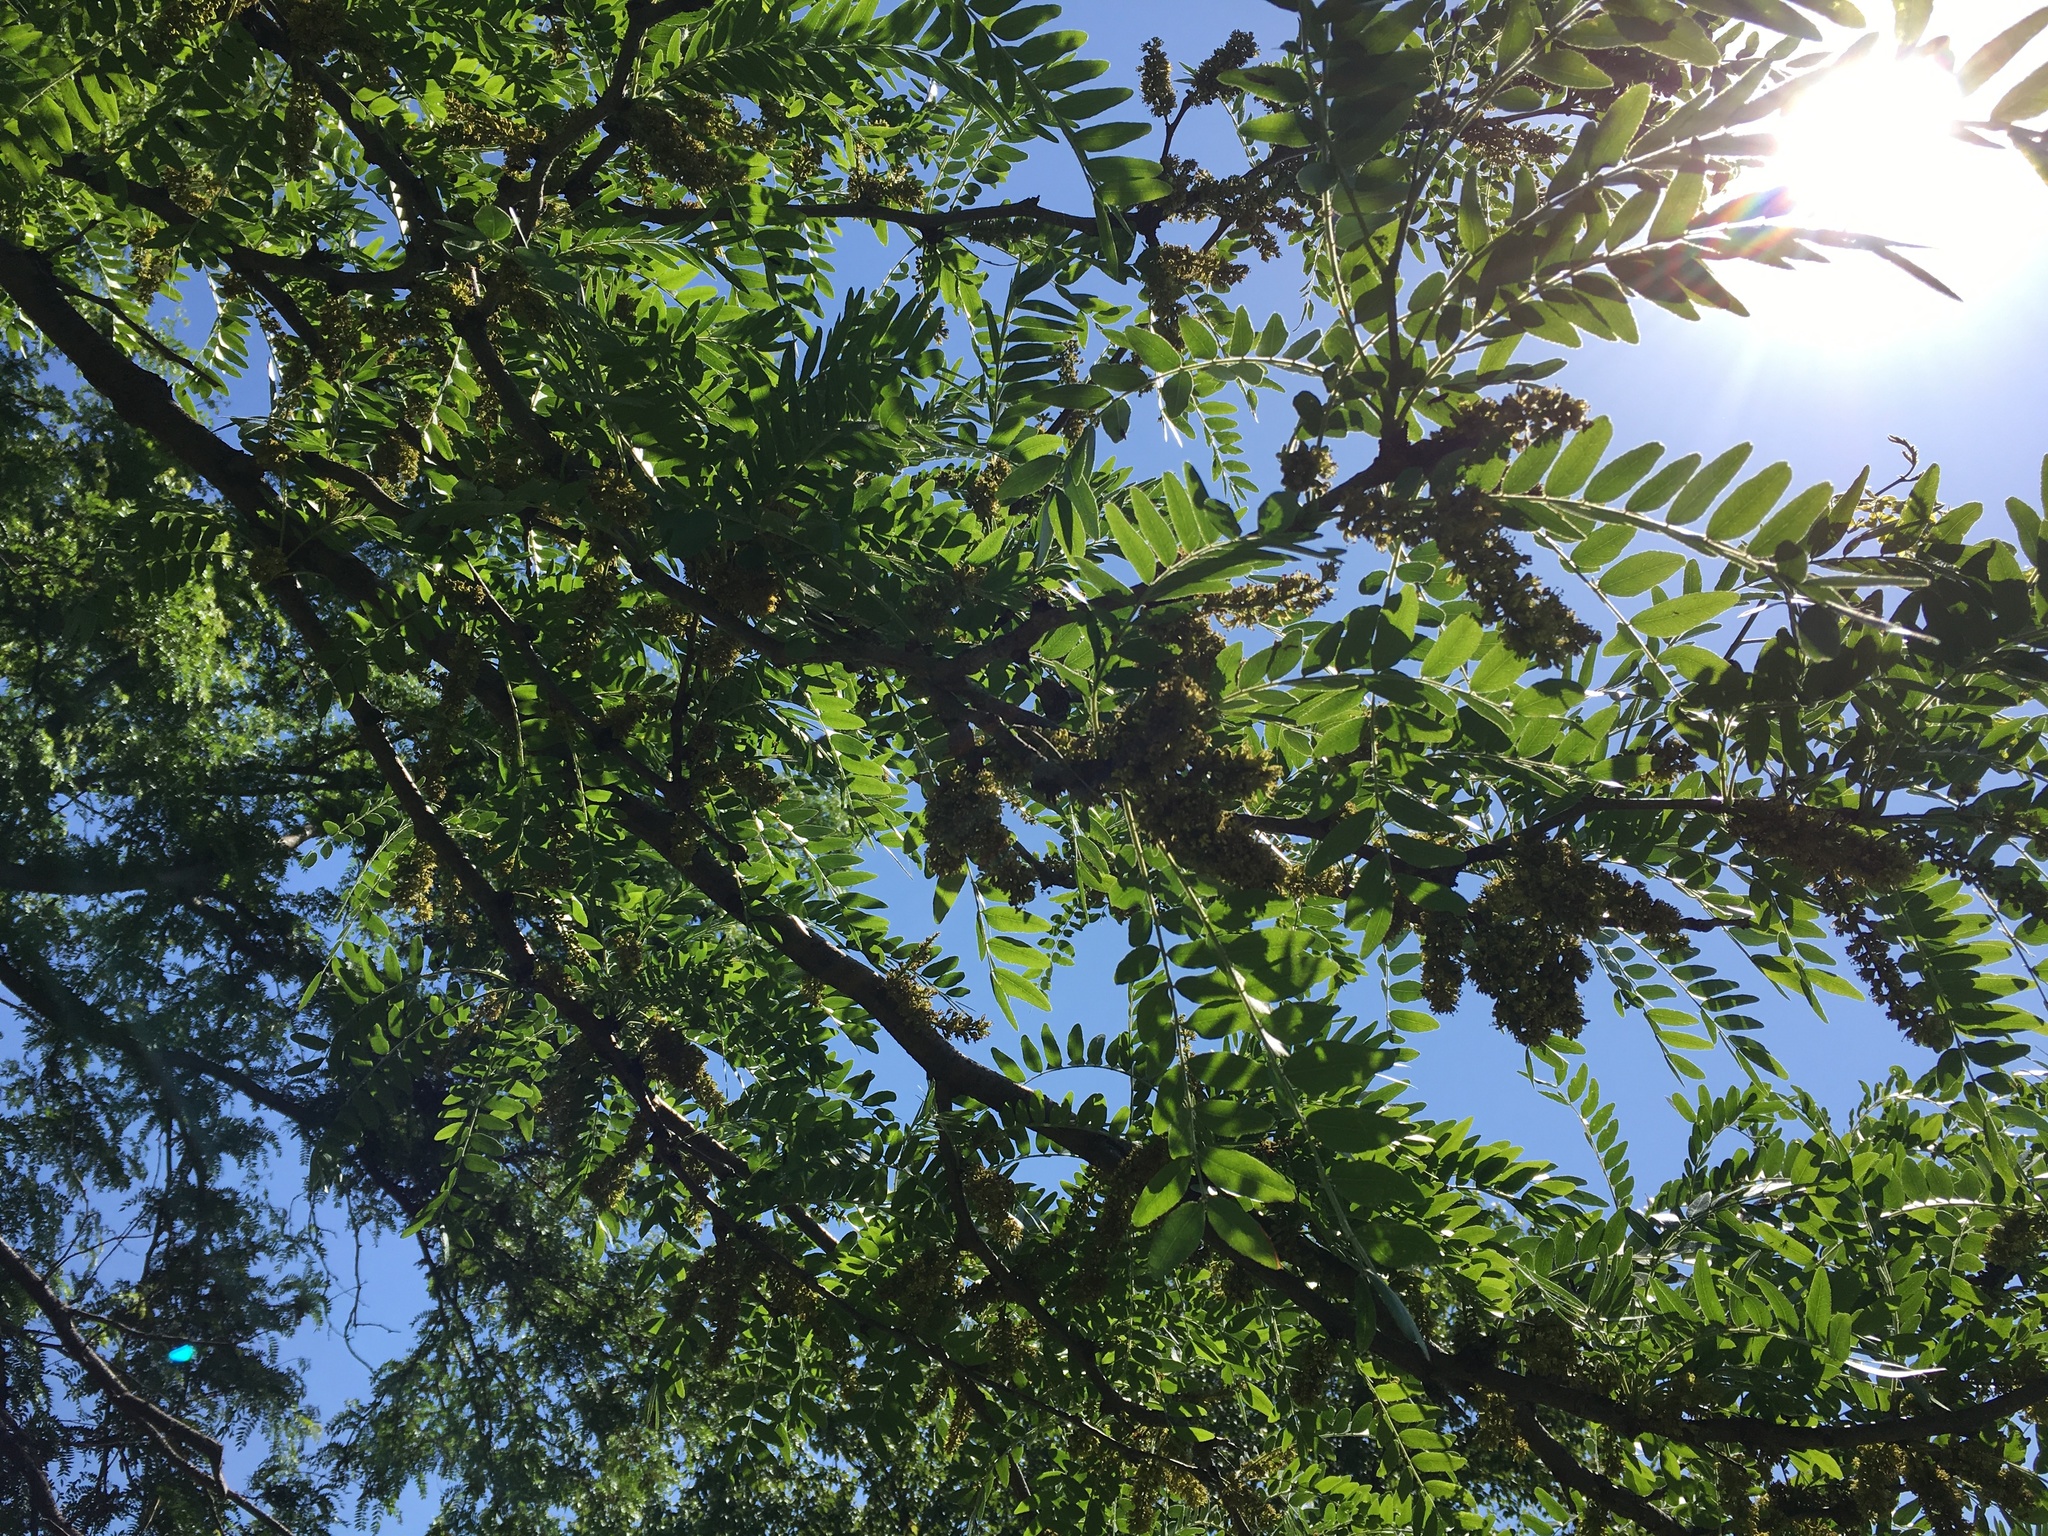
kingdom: Plantae
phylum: Tracheophyta
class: Magnoliopsida
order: Fabales
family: Fabaceae
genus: Gleditsia
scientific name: Gleditsia triacanthos
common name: Common honeylocust
